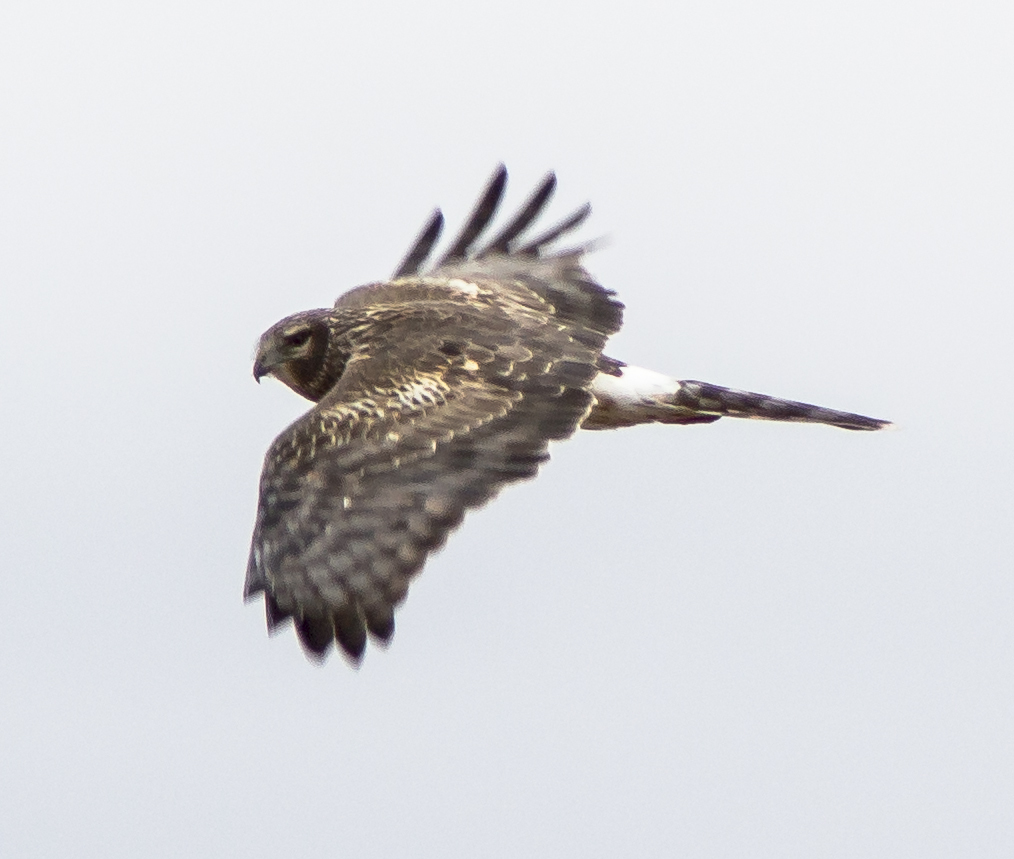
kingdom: Animalia
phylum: Chordata
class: Aves
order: Accipitriformes
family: Accipitridae
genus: Circus
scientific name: Circus cyaneus
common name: Hen harrier
